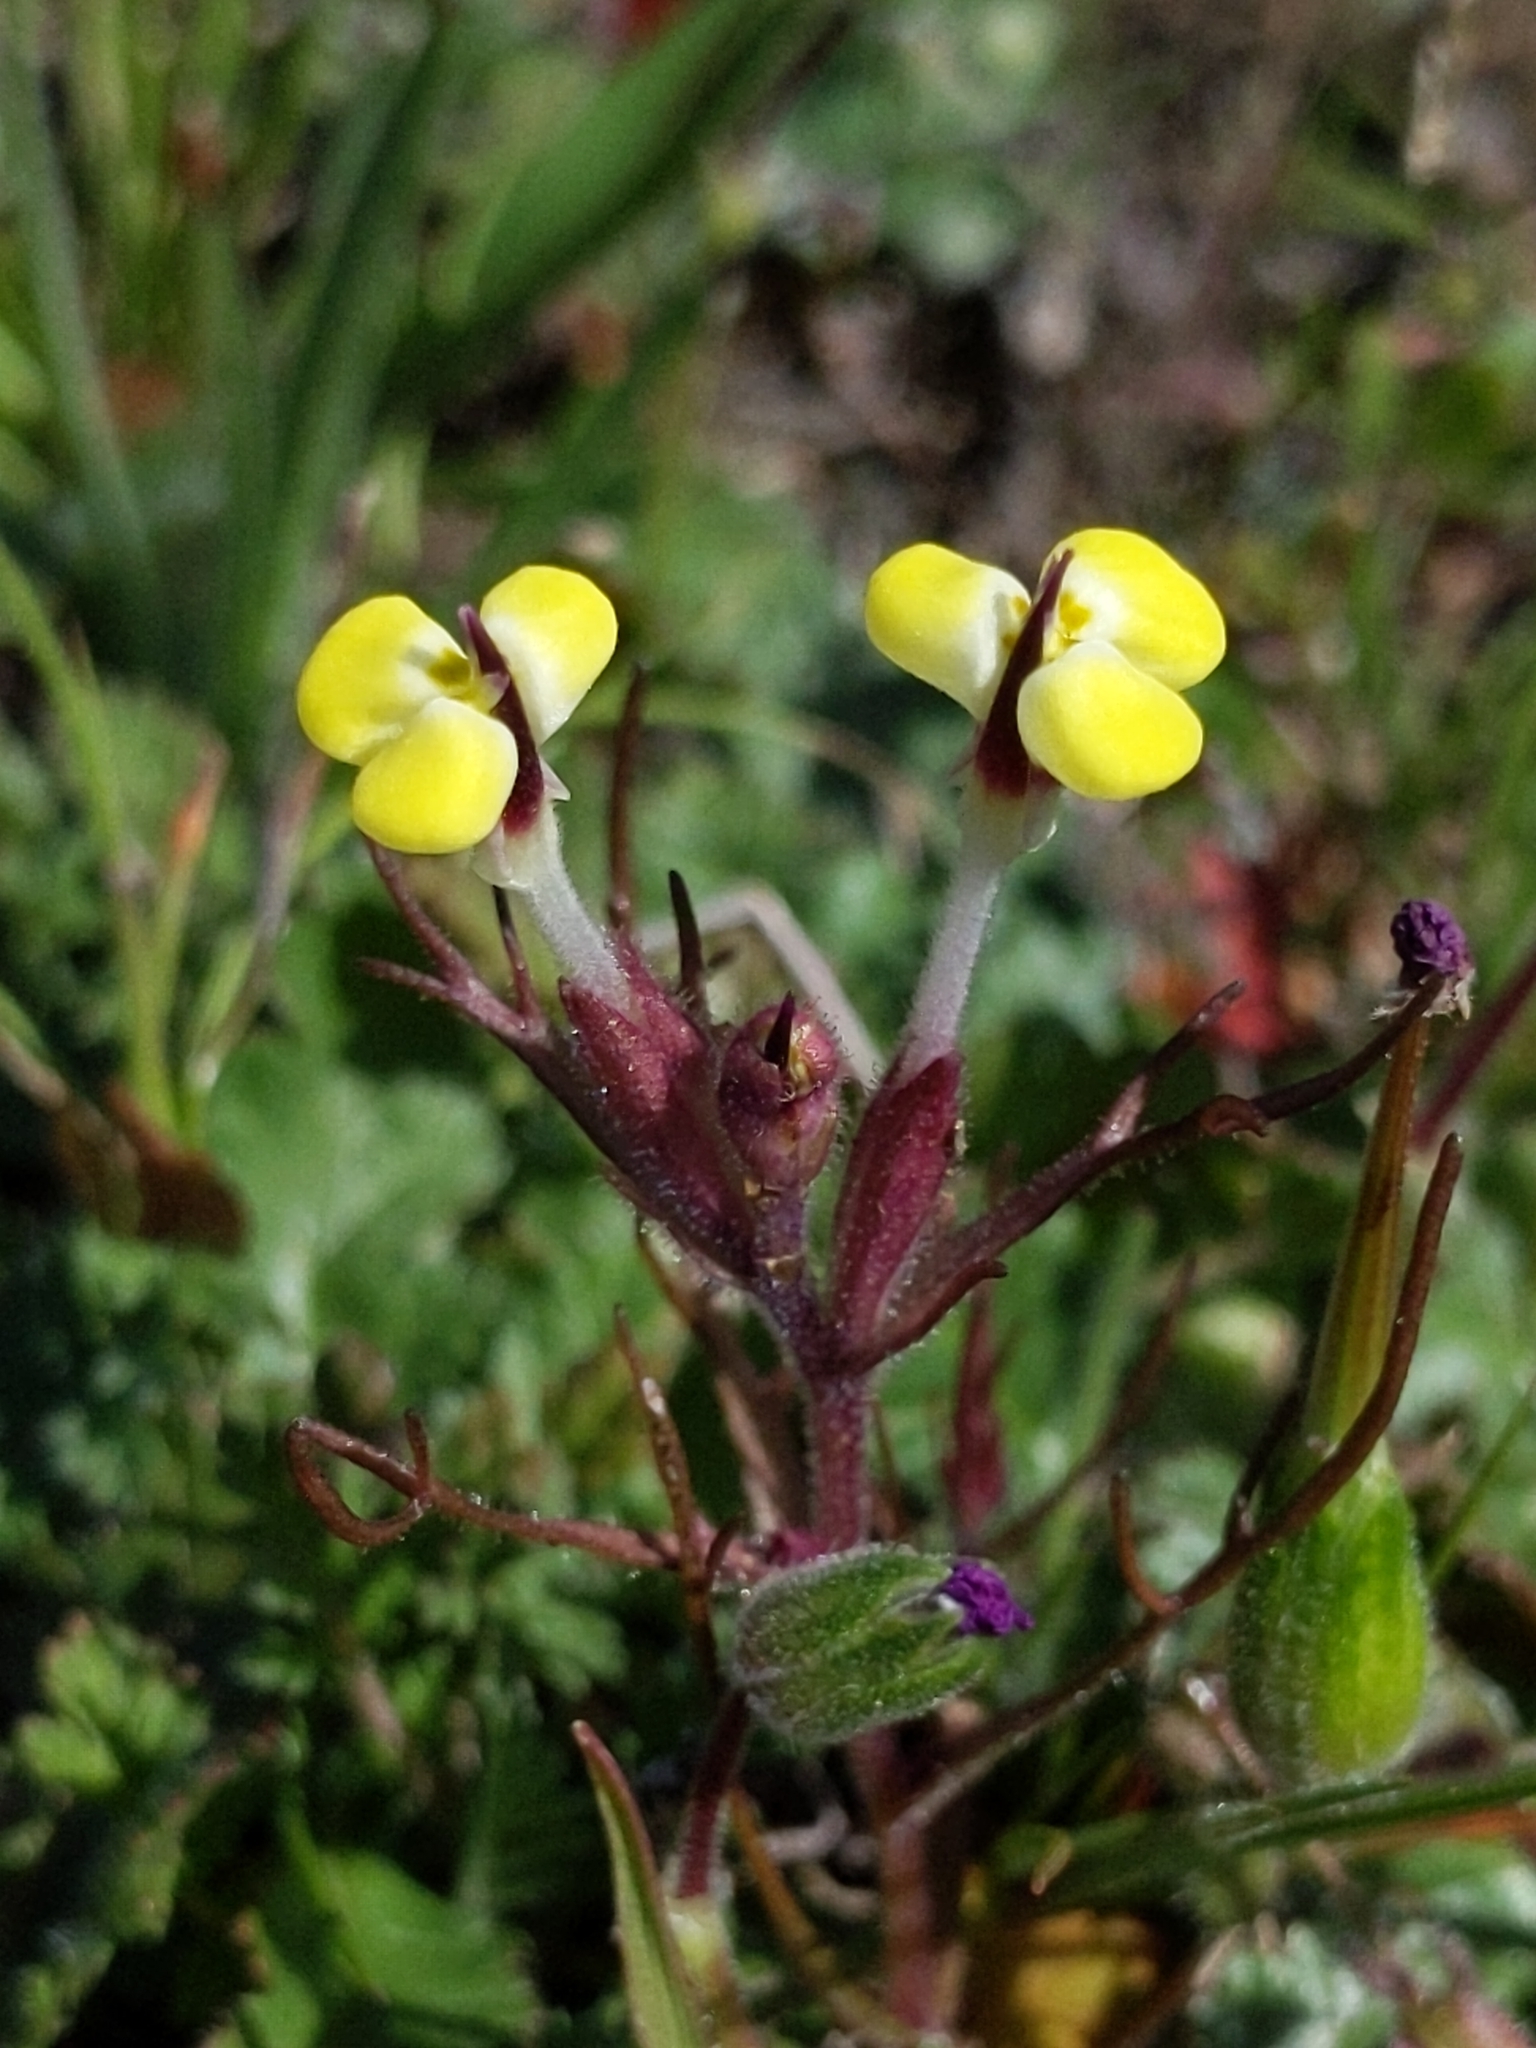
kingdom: Plantae
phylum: Tracheophyta
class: Magnoliopsida
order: Lamiales
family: Orobanchaceae
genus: Triphysaria
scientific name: Triphysaria eriantha
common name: Johnny-tuck
